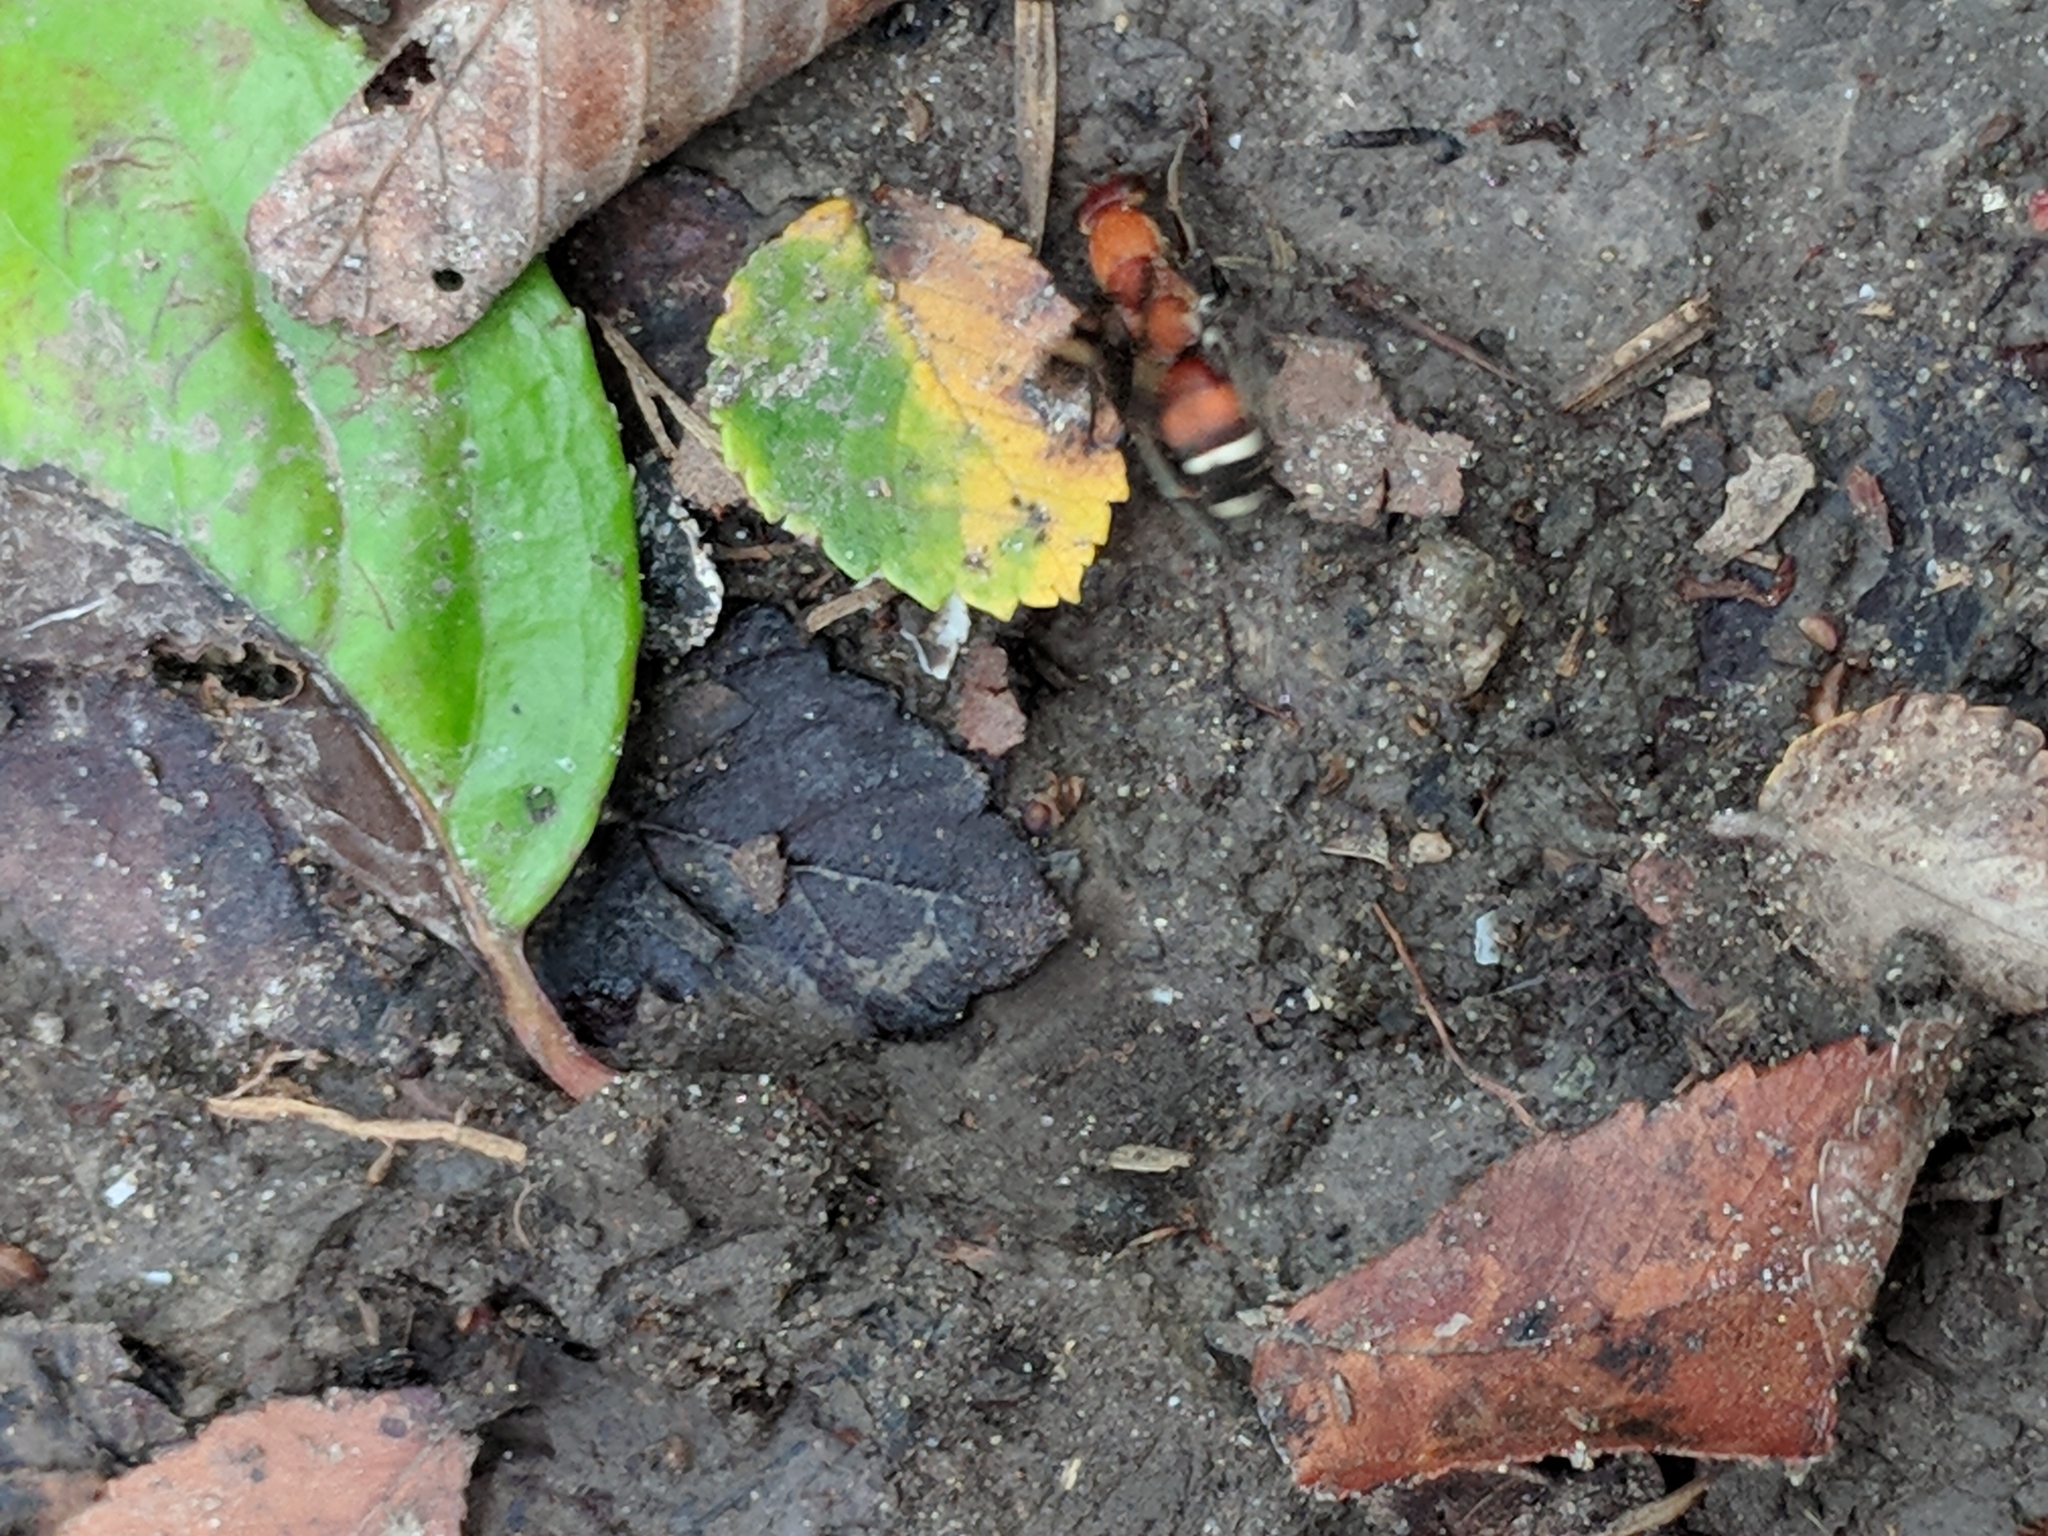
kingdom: Animalia
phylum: Arthropoda
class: Insecta
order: Hymenoptera
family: Pompilidae
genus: Psorthaspis
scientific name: Psorthaspis legata
